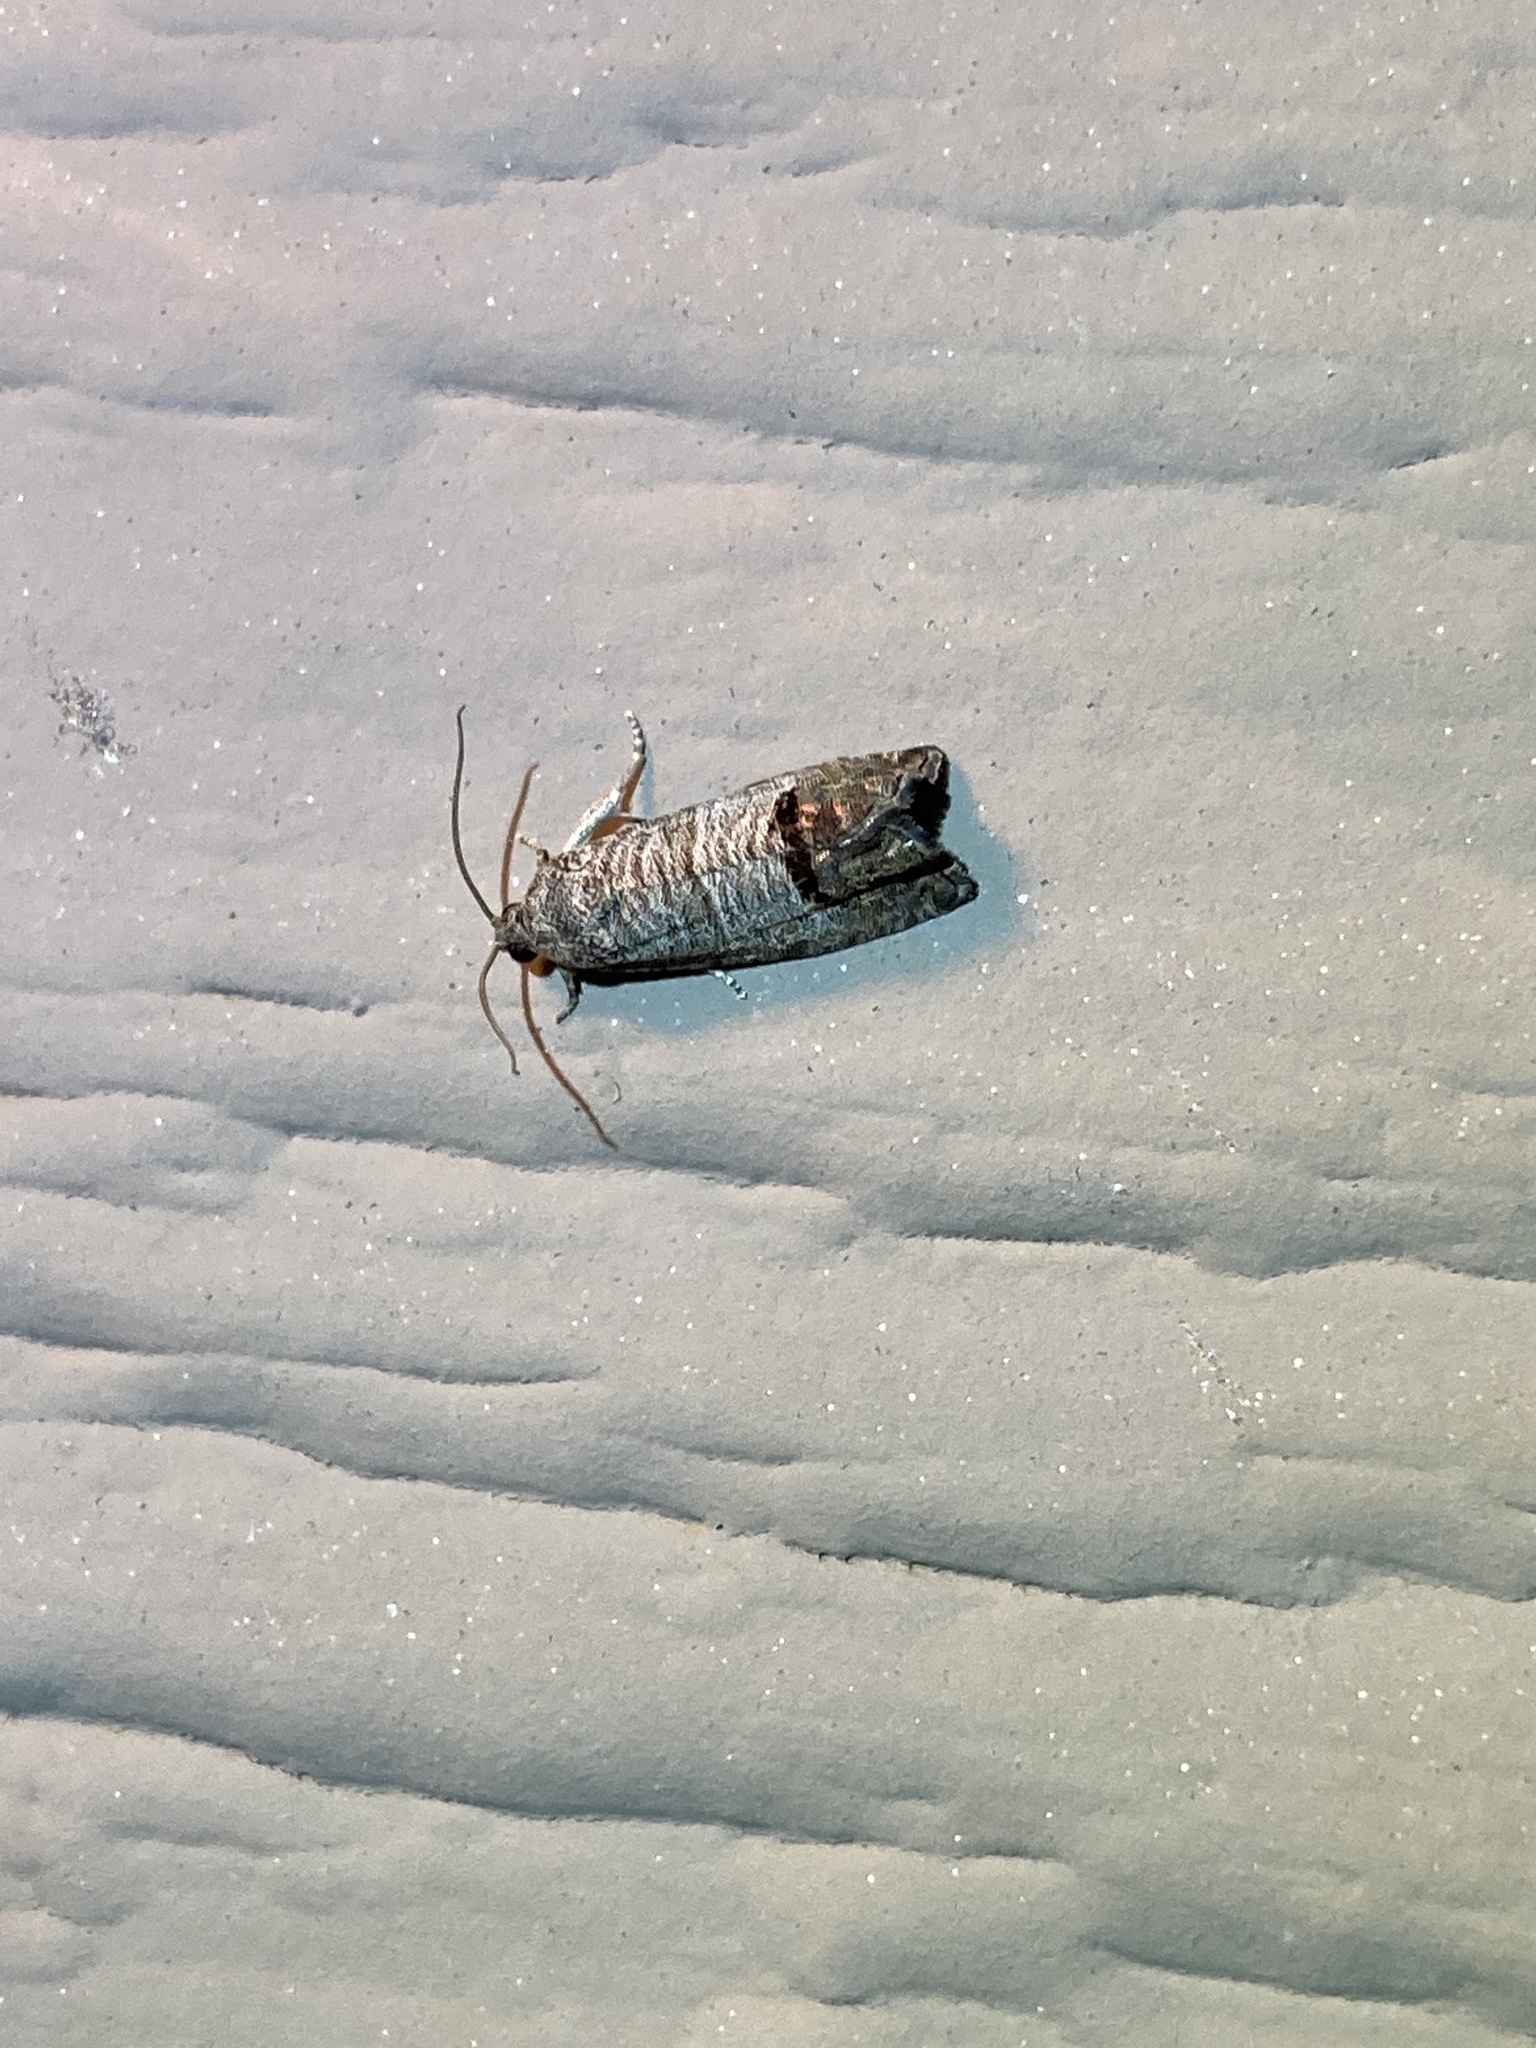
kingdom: Animalia
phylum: Arthropoda
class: Insecta
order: Lepidoptera
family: Tortricidae
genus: Cydia
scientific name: Cydia pomonella
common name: Codling moth
